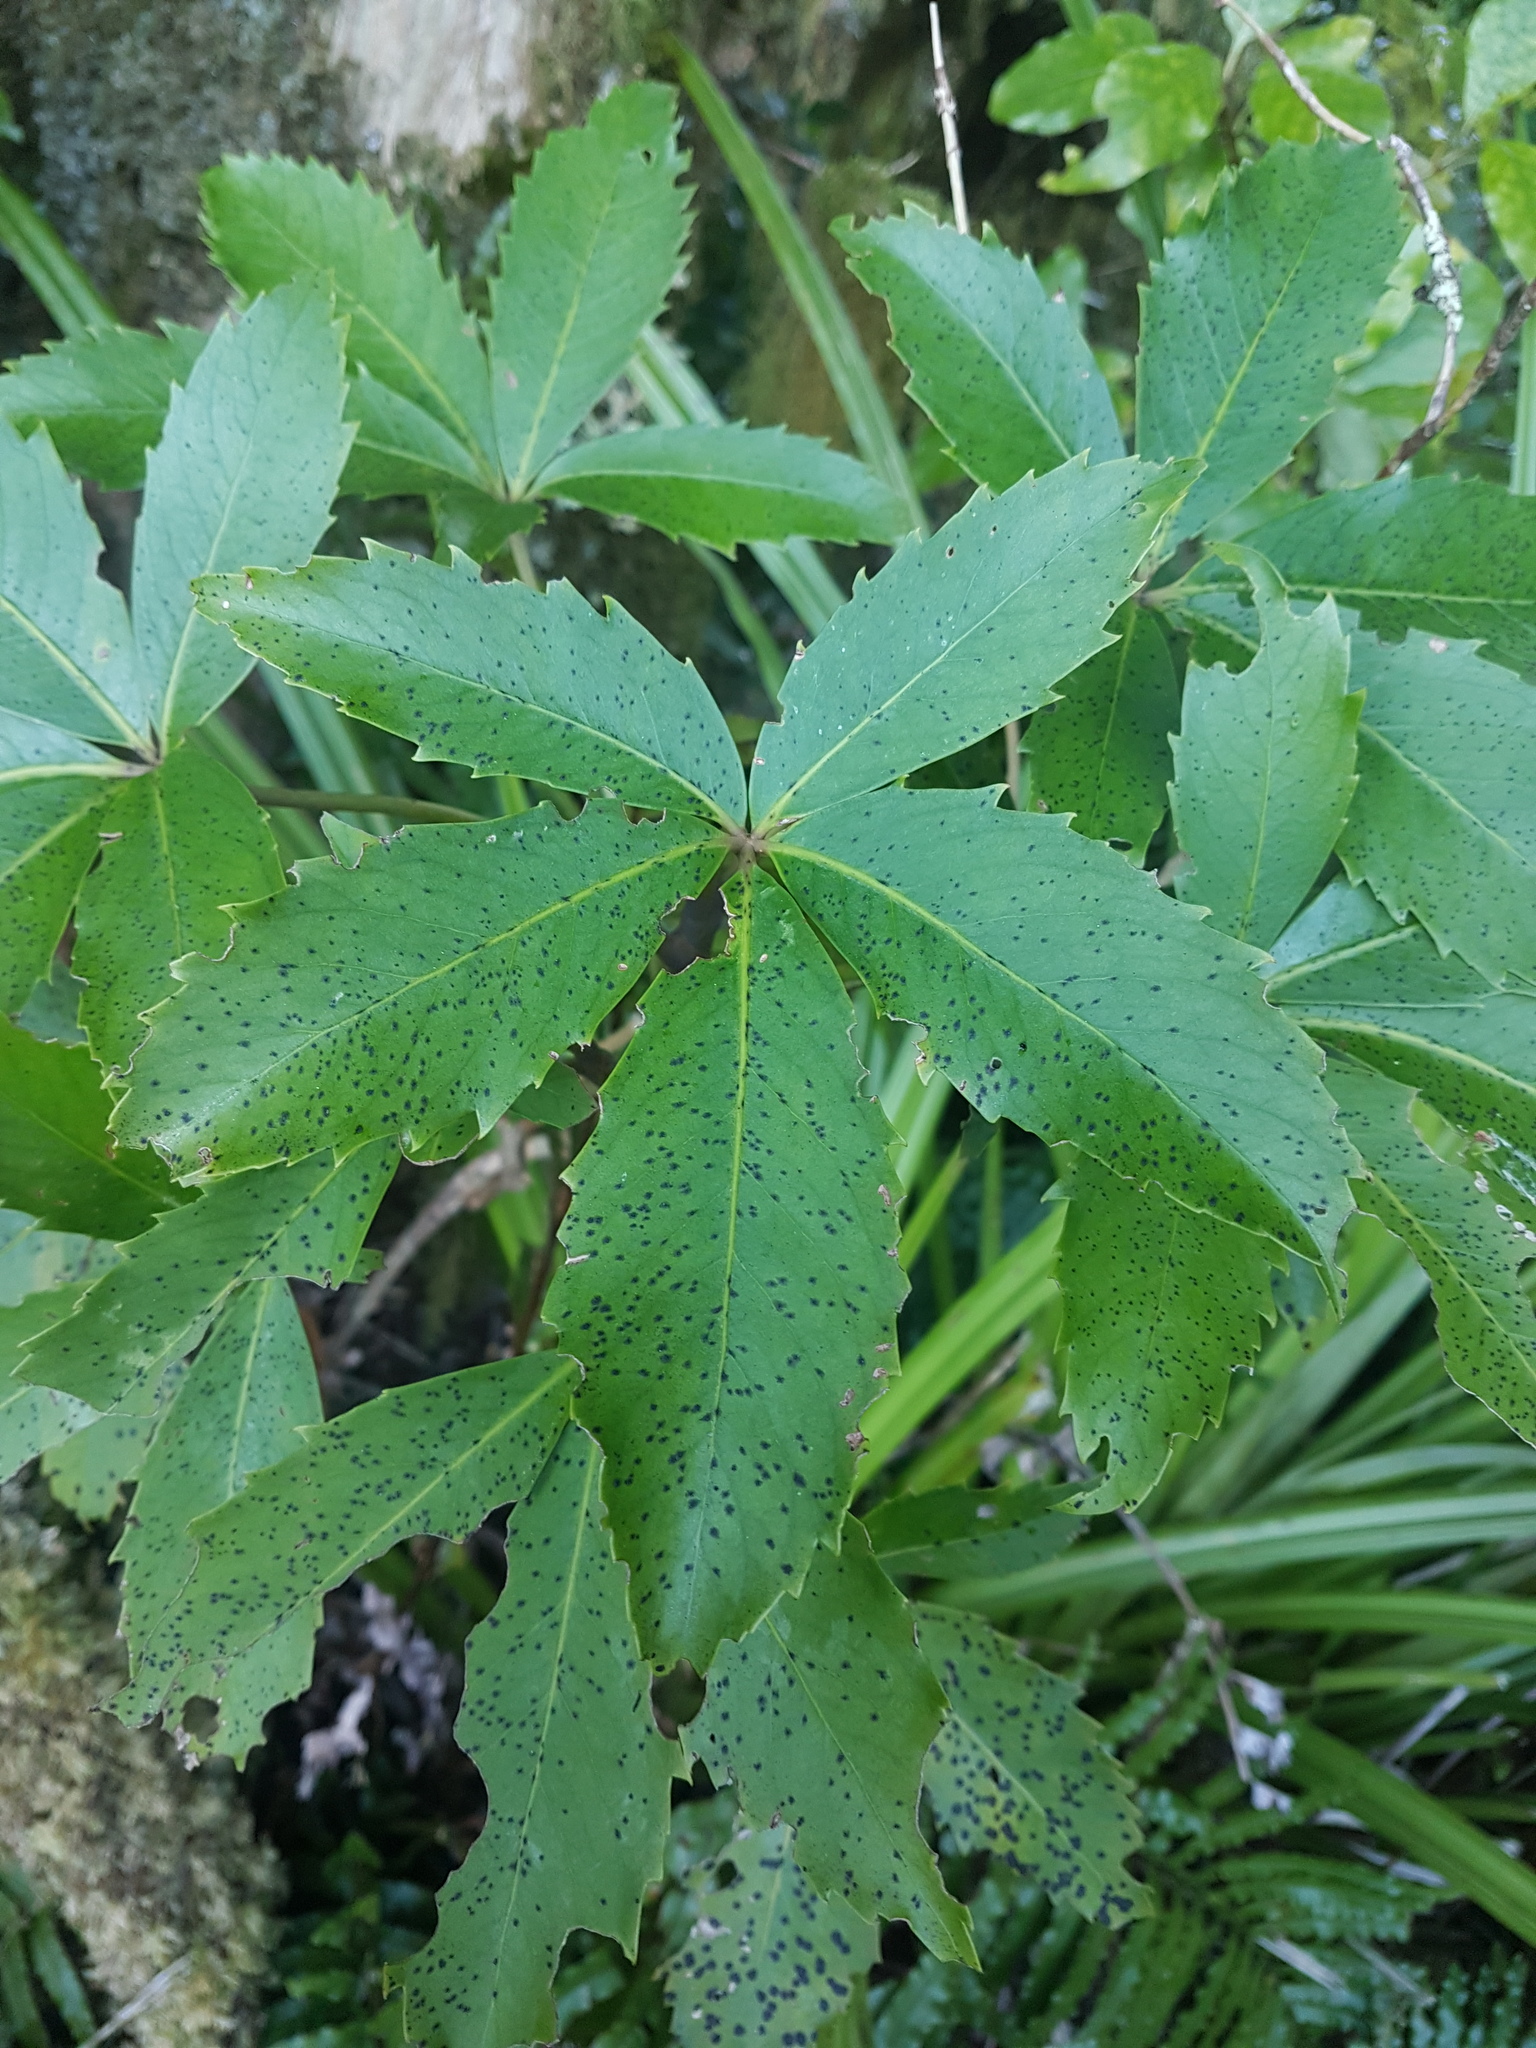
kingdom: Plantae
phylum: Tracheophyta
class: Magnoliopsida
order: Apiales
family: Araliaceae
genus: Neopanax
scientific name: Neopanax colensoi
